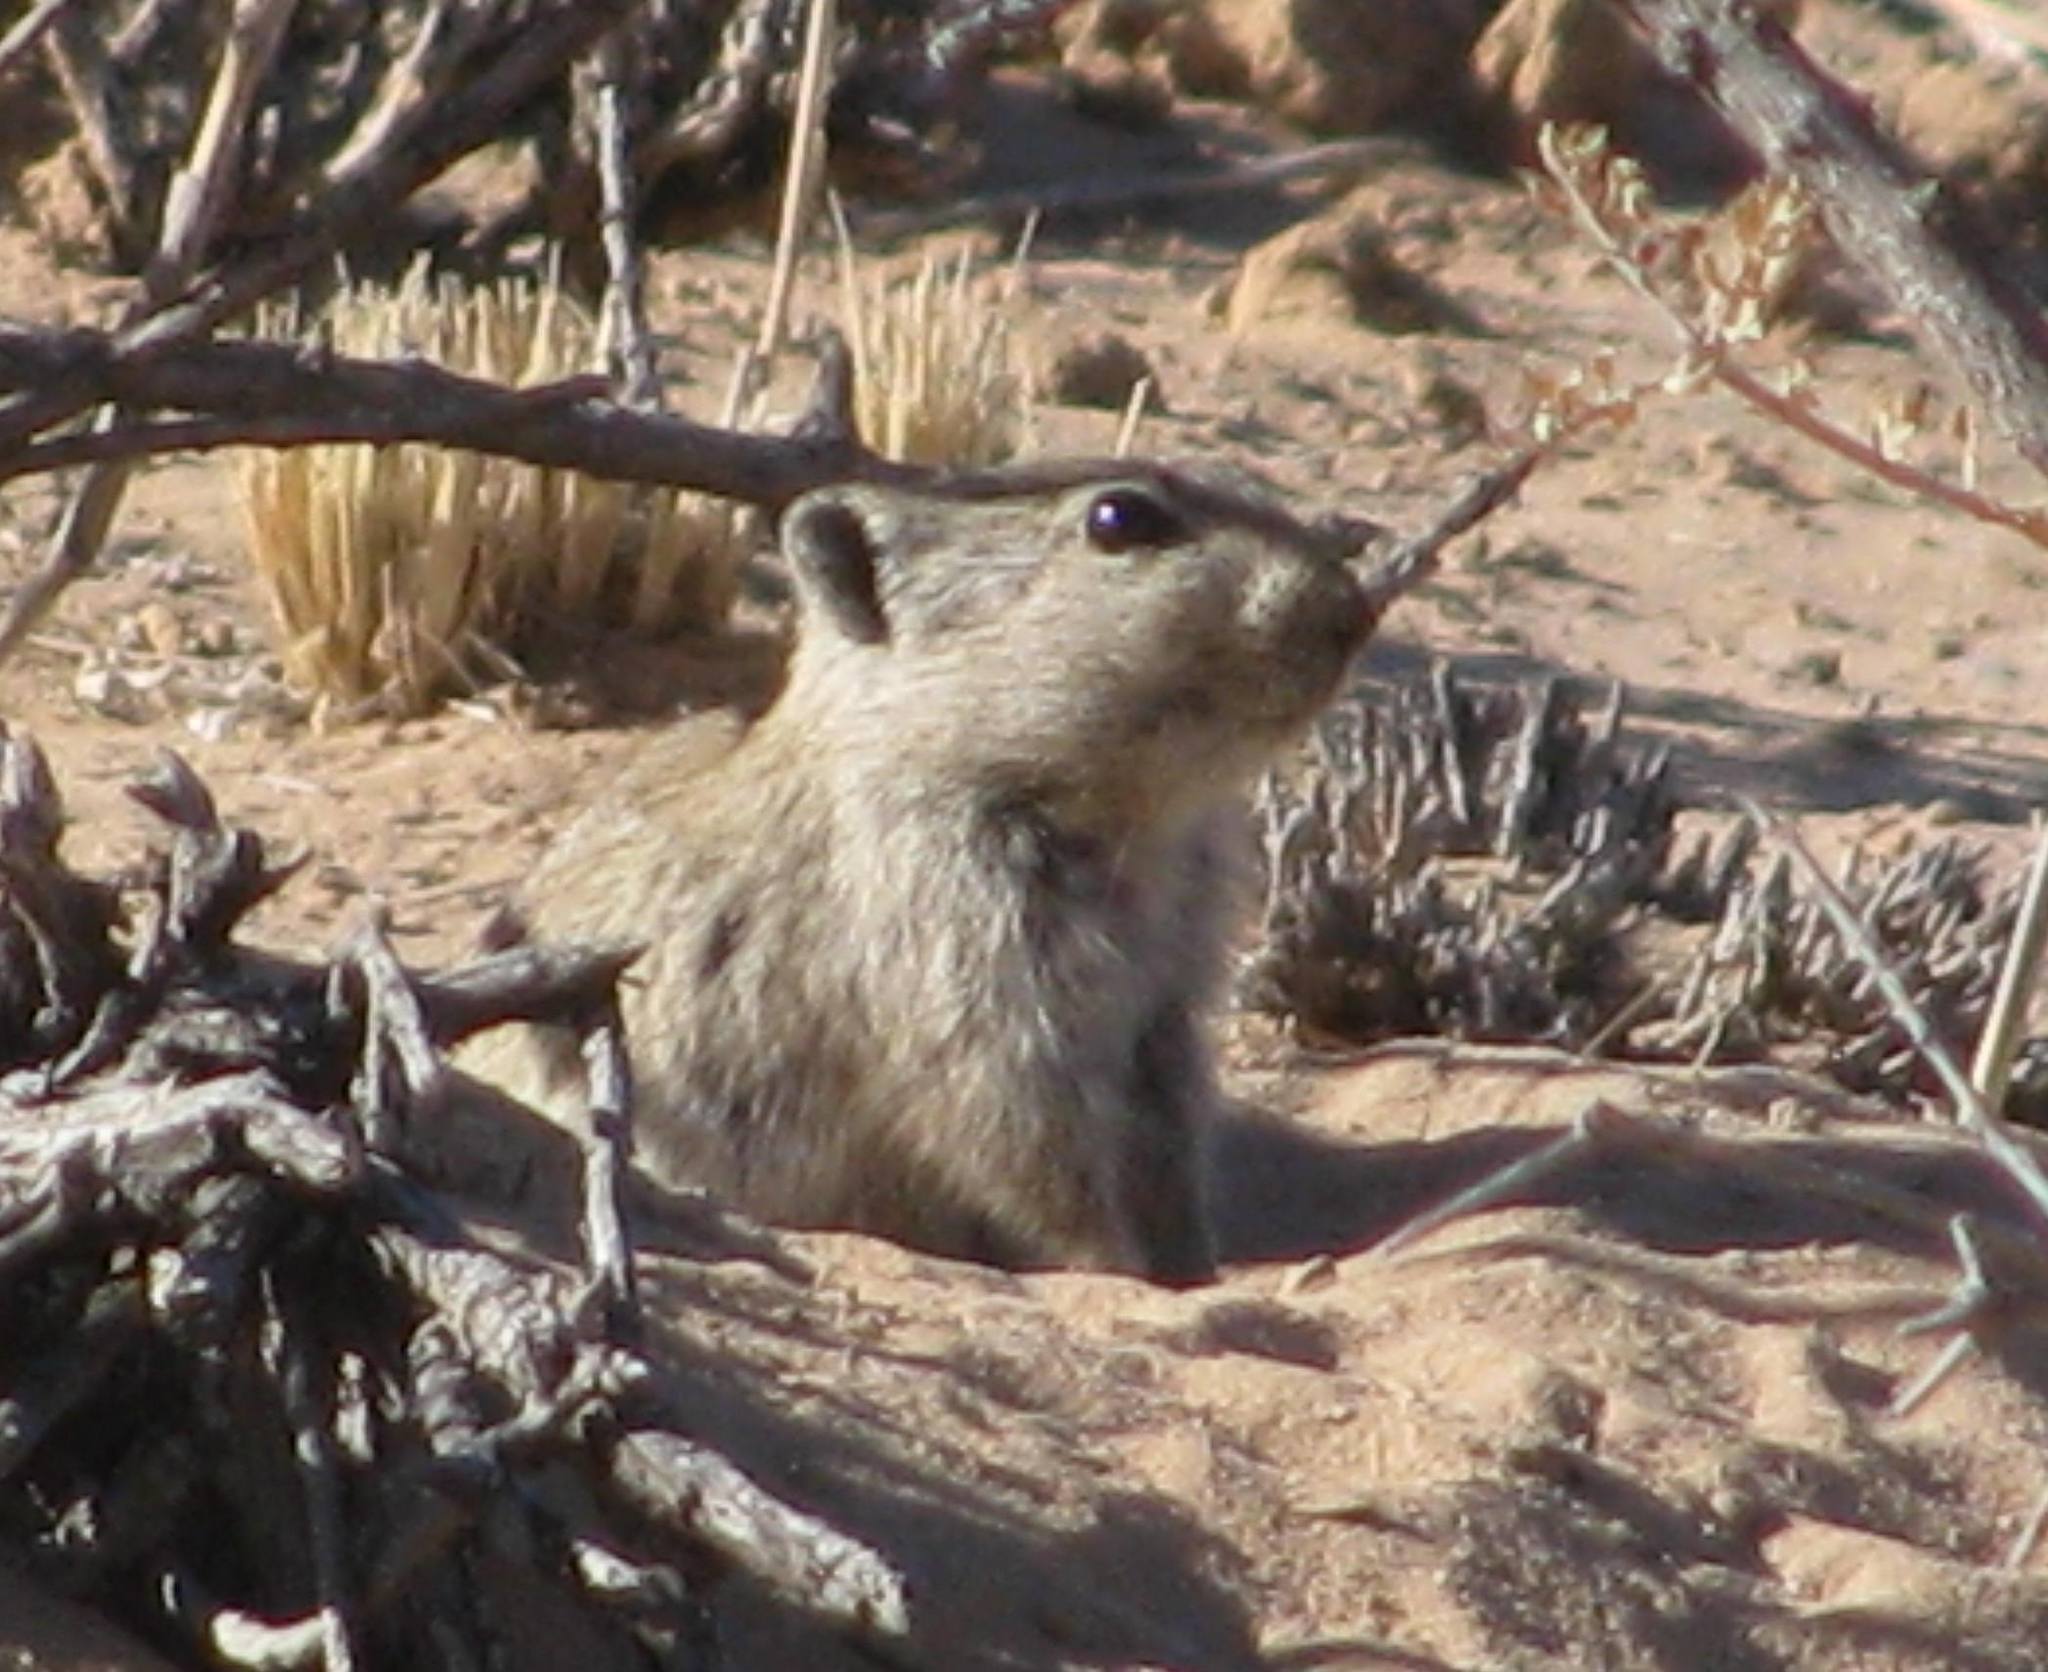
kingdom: Animalia
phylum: Chordata
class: Mammalia
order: Rodentia
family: Muridae
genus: Parotomys
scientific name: Parotomys brantsii
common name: Brants's whistling rat
